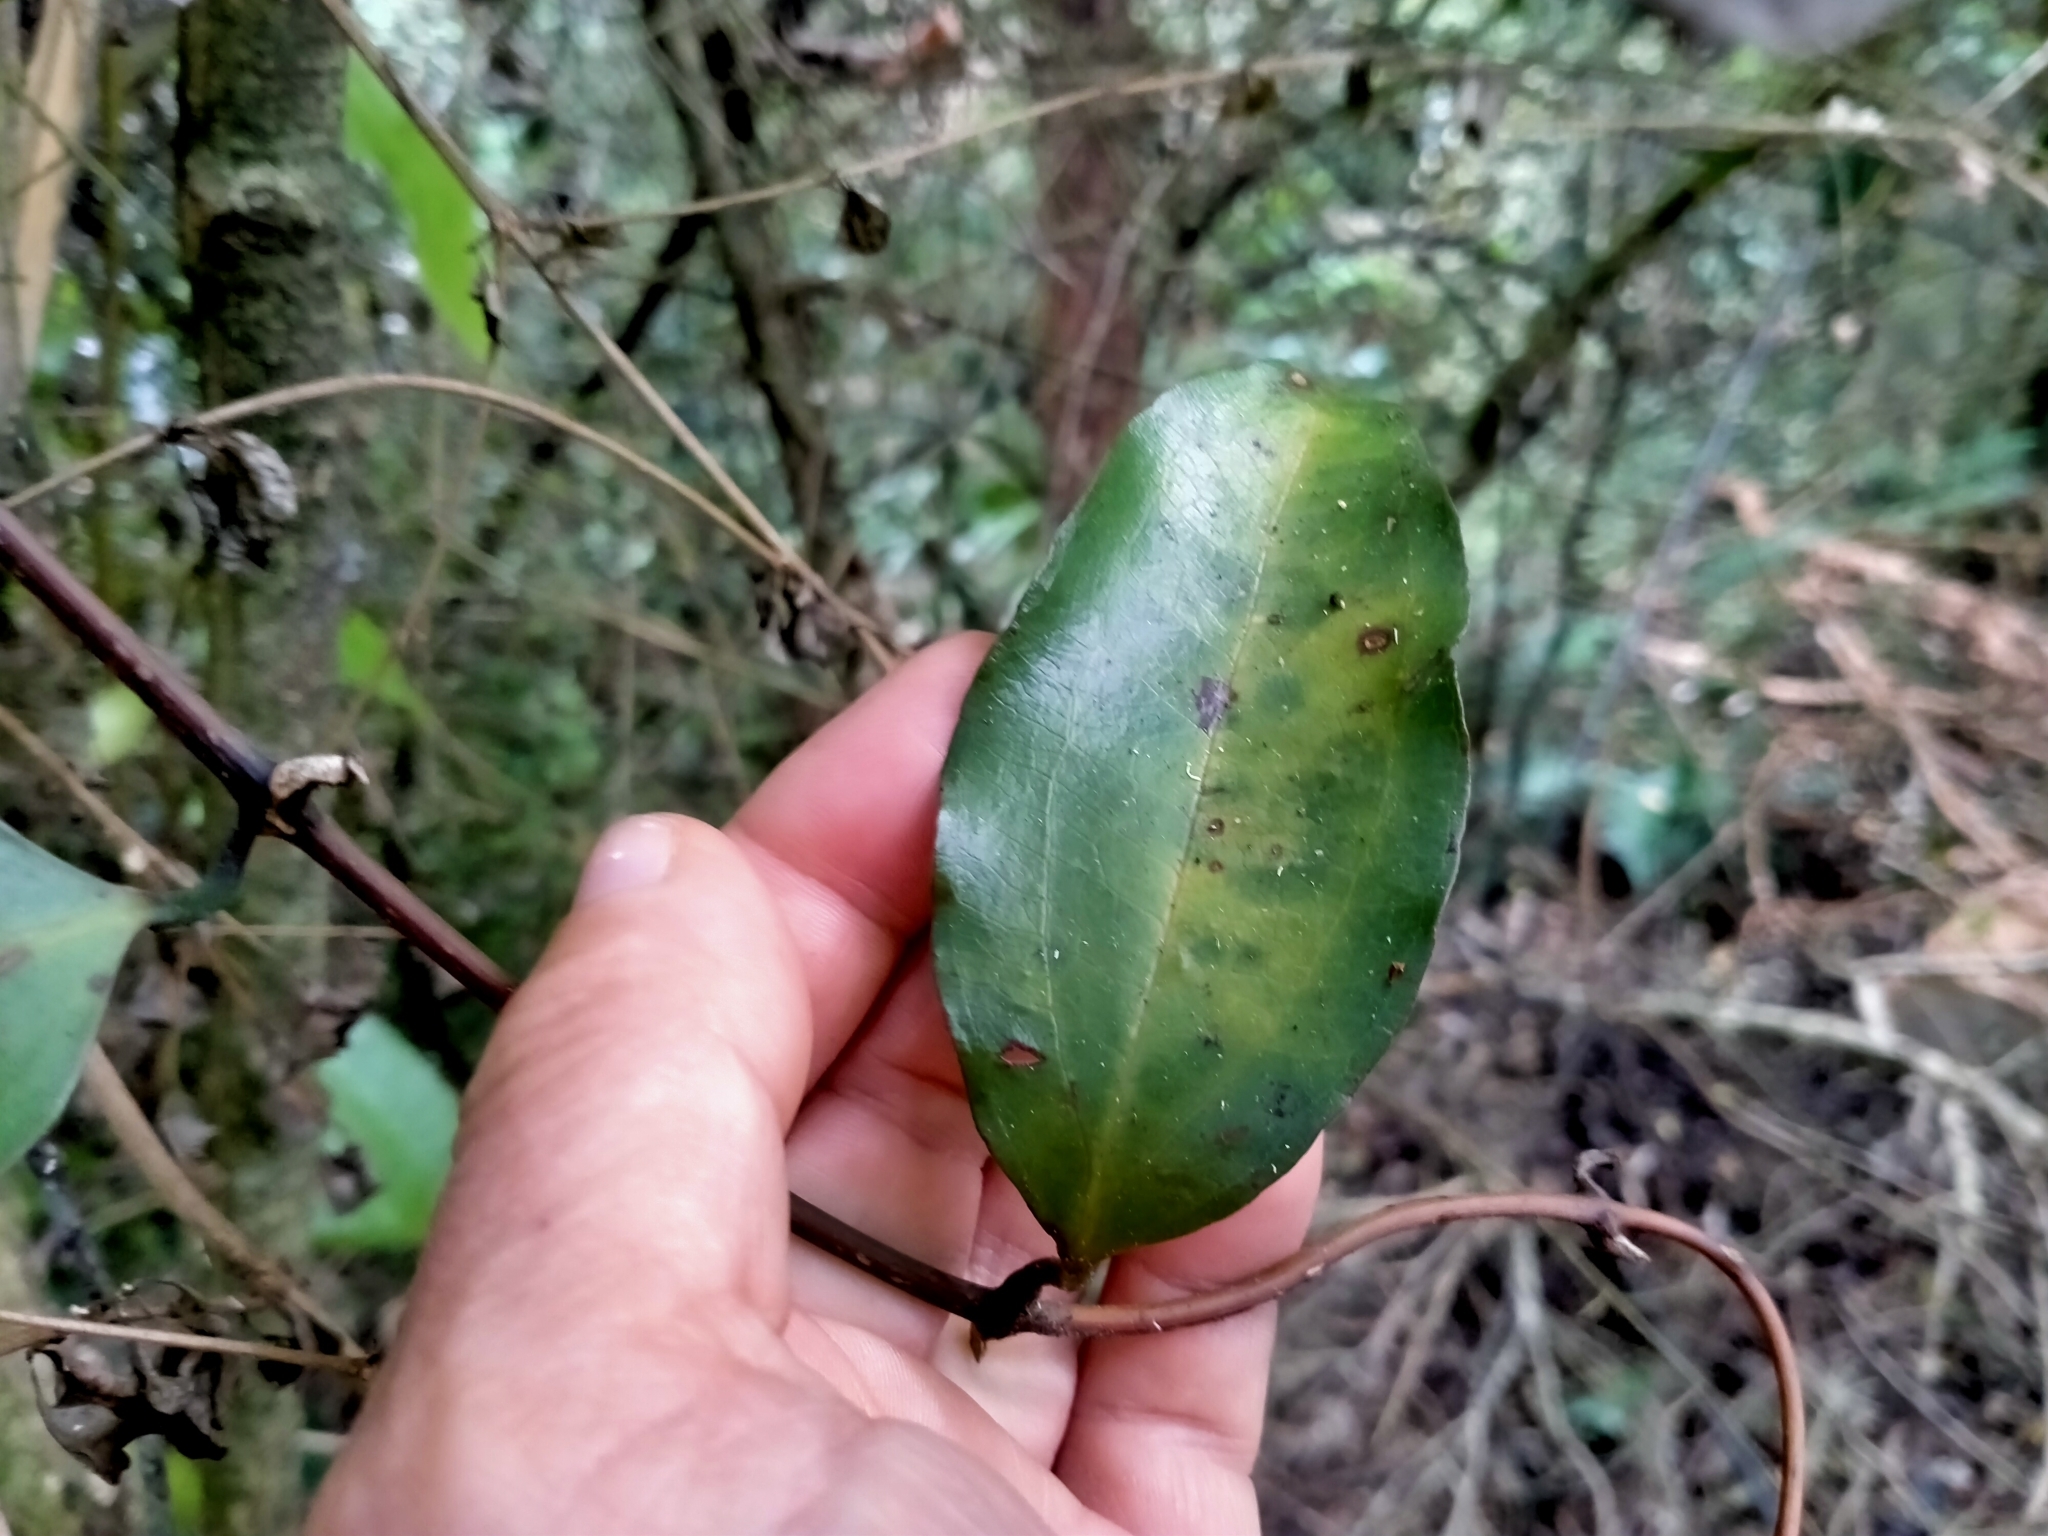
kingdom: Plantae
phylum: Tracheophyta
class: Liliopsida
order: Liliales
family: Ripogonaceae
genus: Ripogonum
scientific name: Ripogonum scandens
